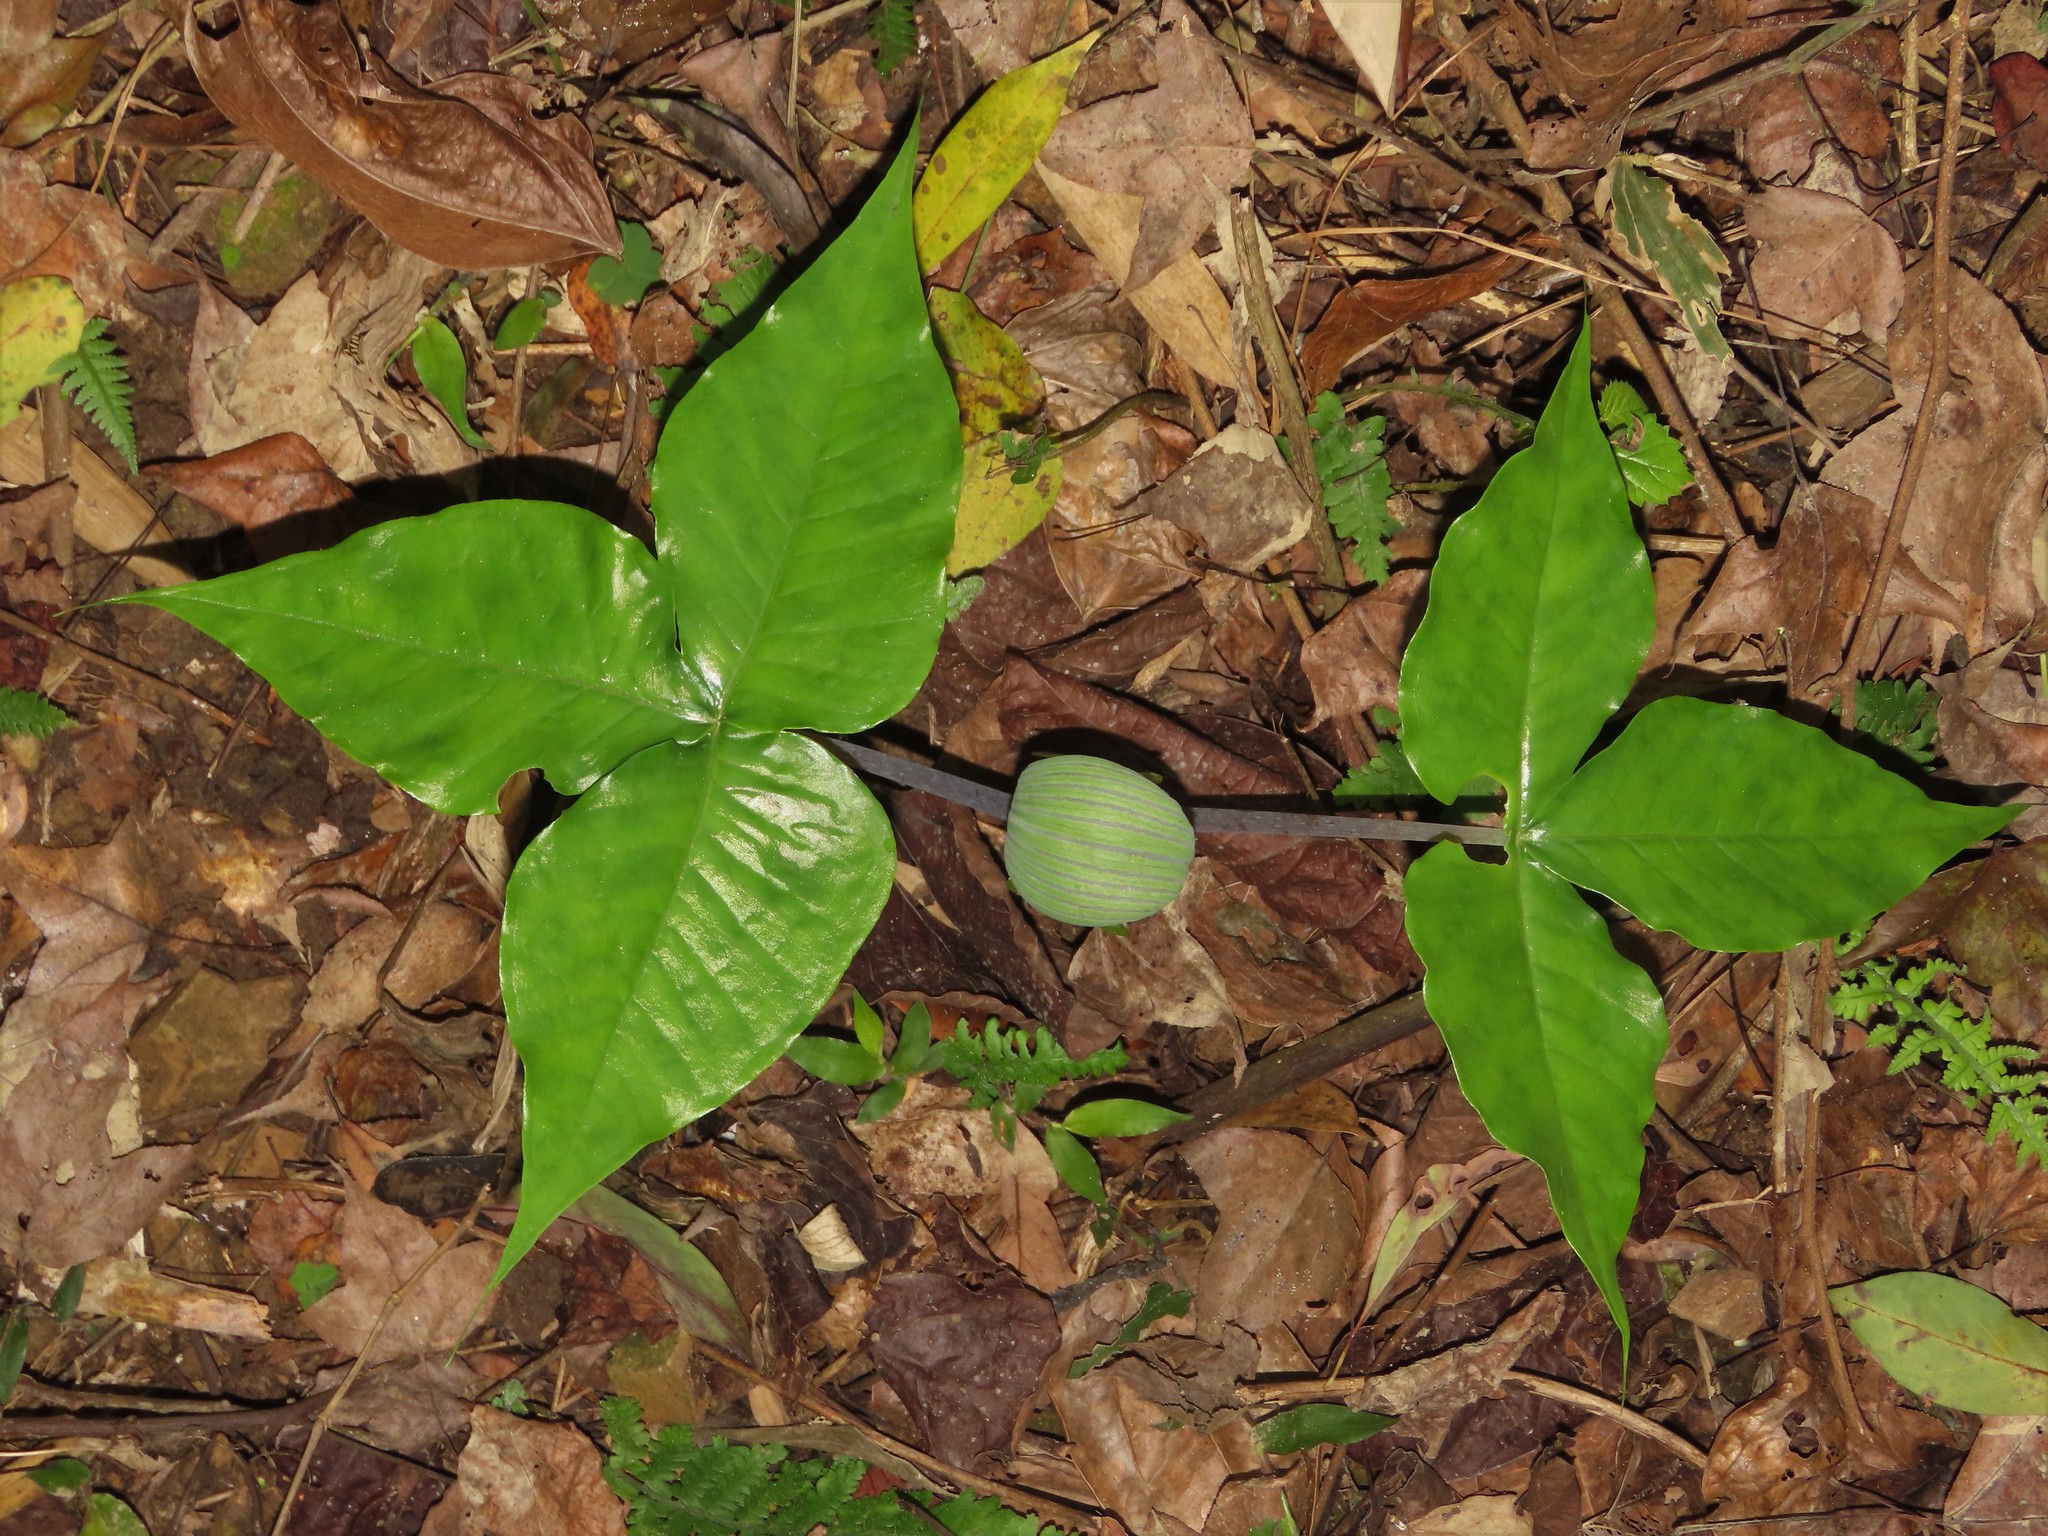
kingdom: Plantae
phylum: Tracheophyta
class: Liliopsida
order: Alismatales
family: Araceae
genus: Arisaema
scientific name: Arisaema ringens
